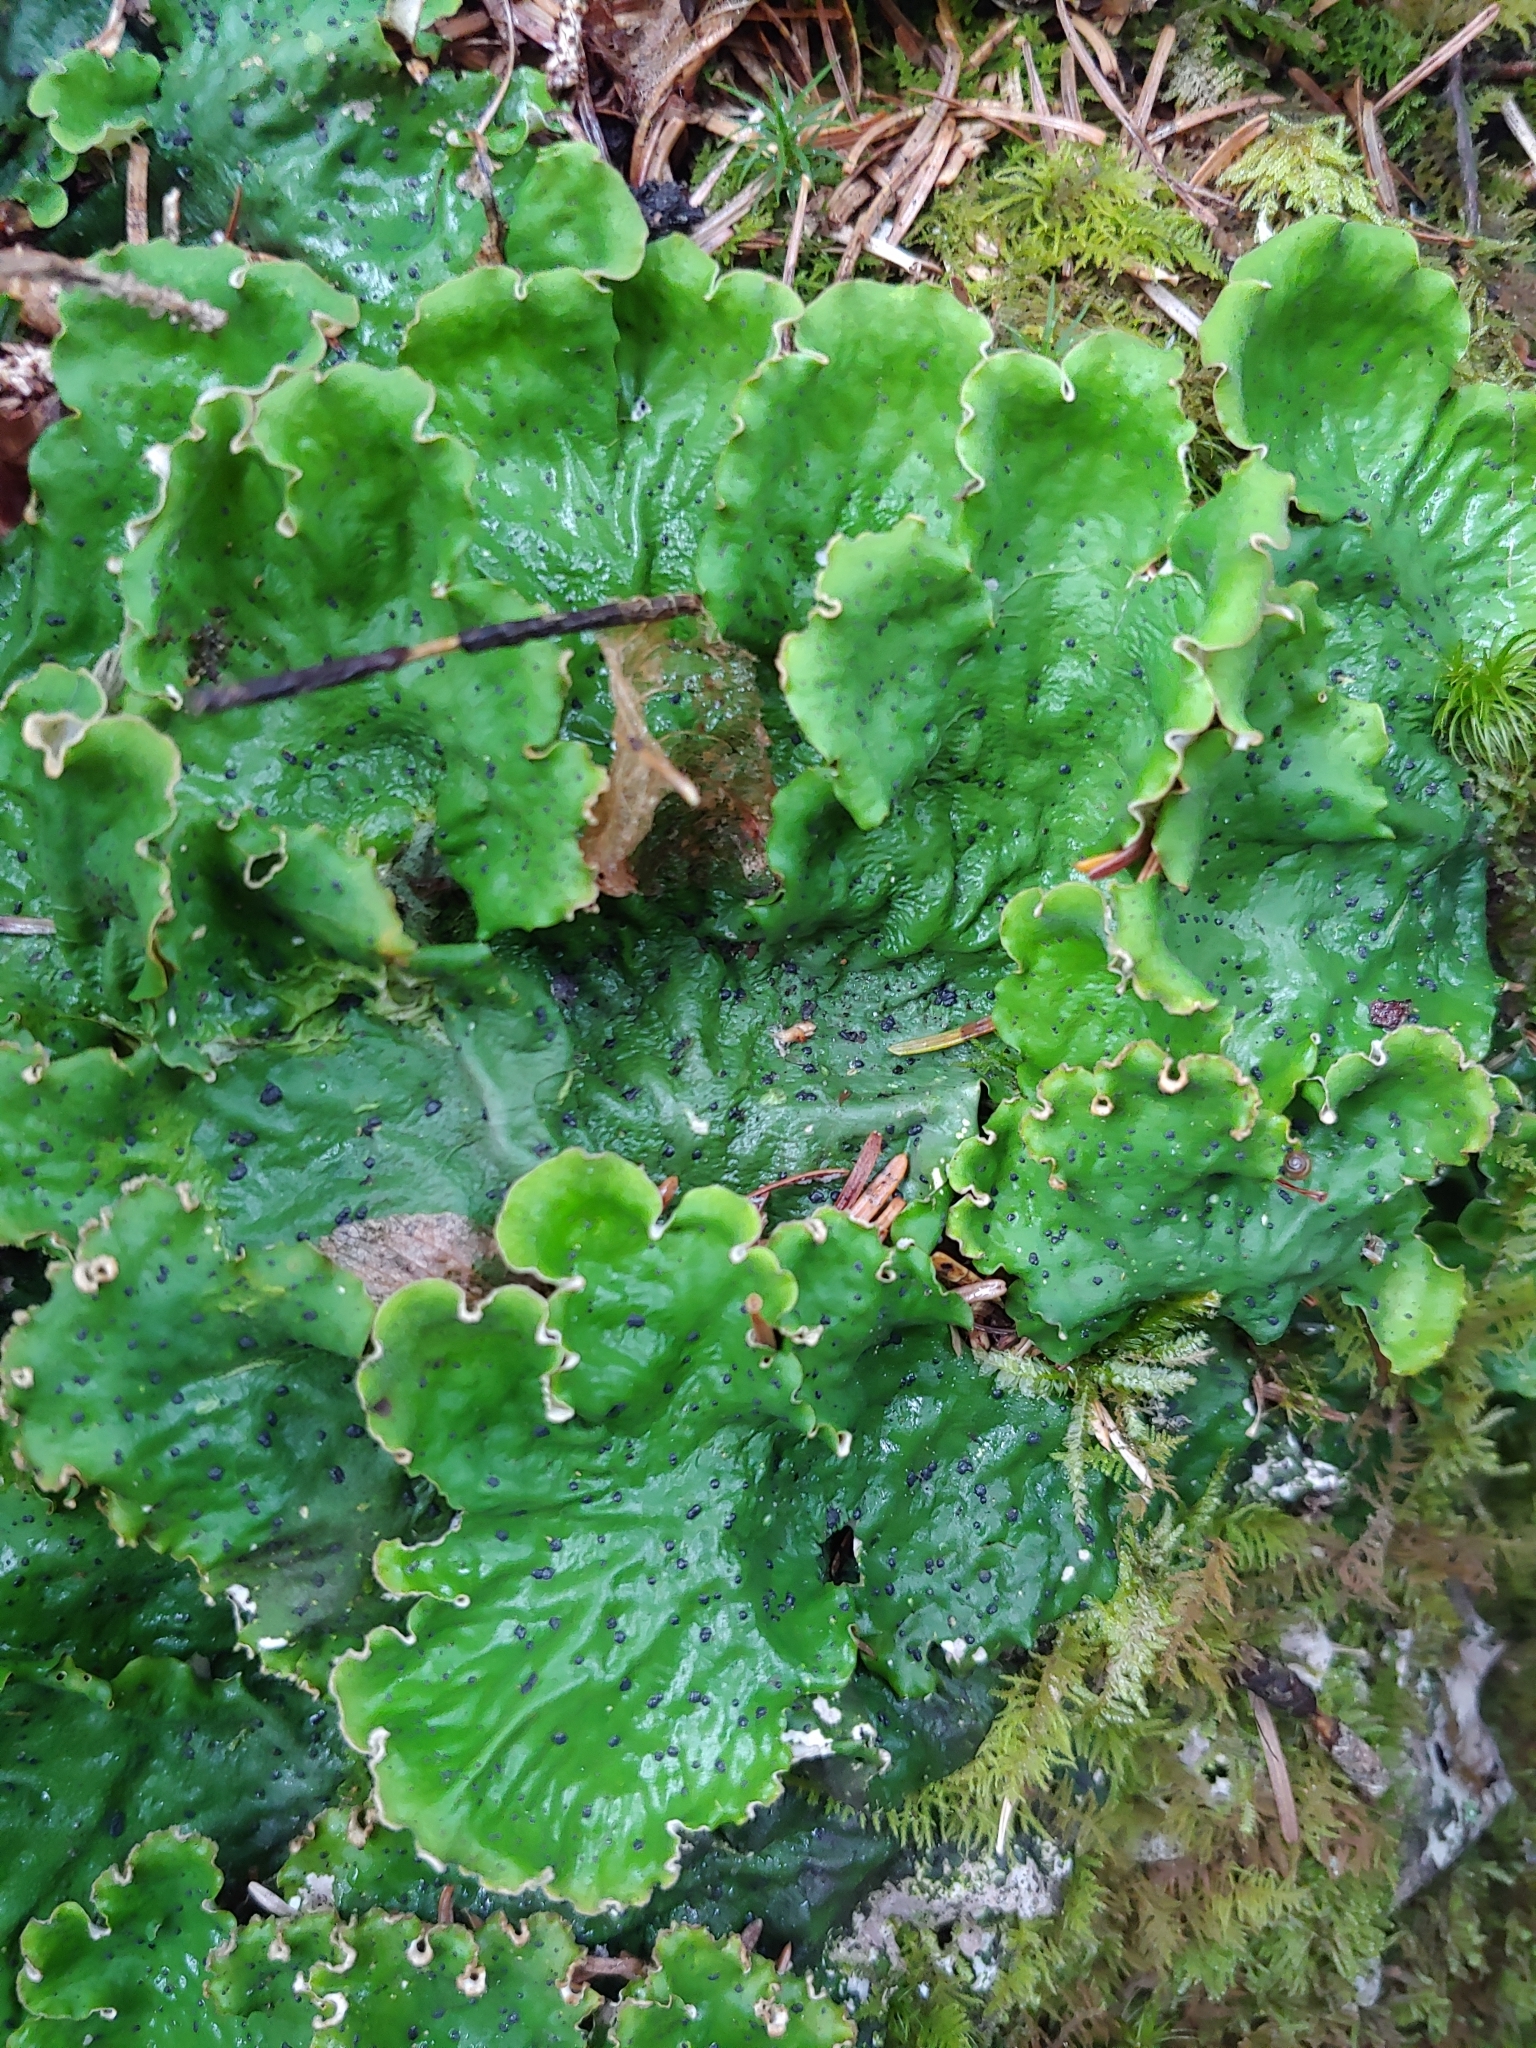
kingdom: Fungi
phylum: Ascomycota
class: Lecanoromycetes
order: Peltigerales
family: Peltigeraceae
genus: Peltigera
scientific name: Peltigera aphthosa
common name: Common freckle pelt lichen
